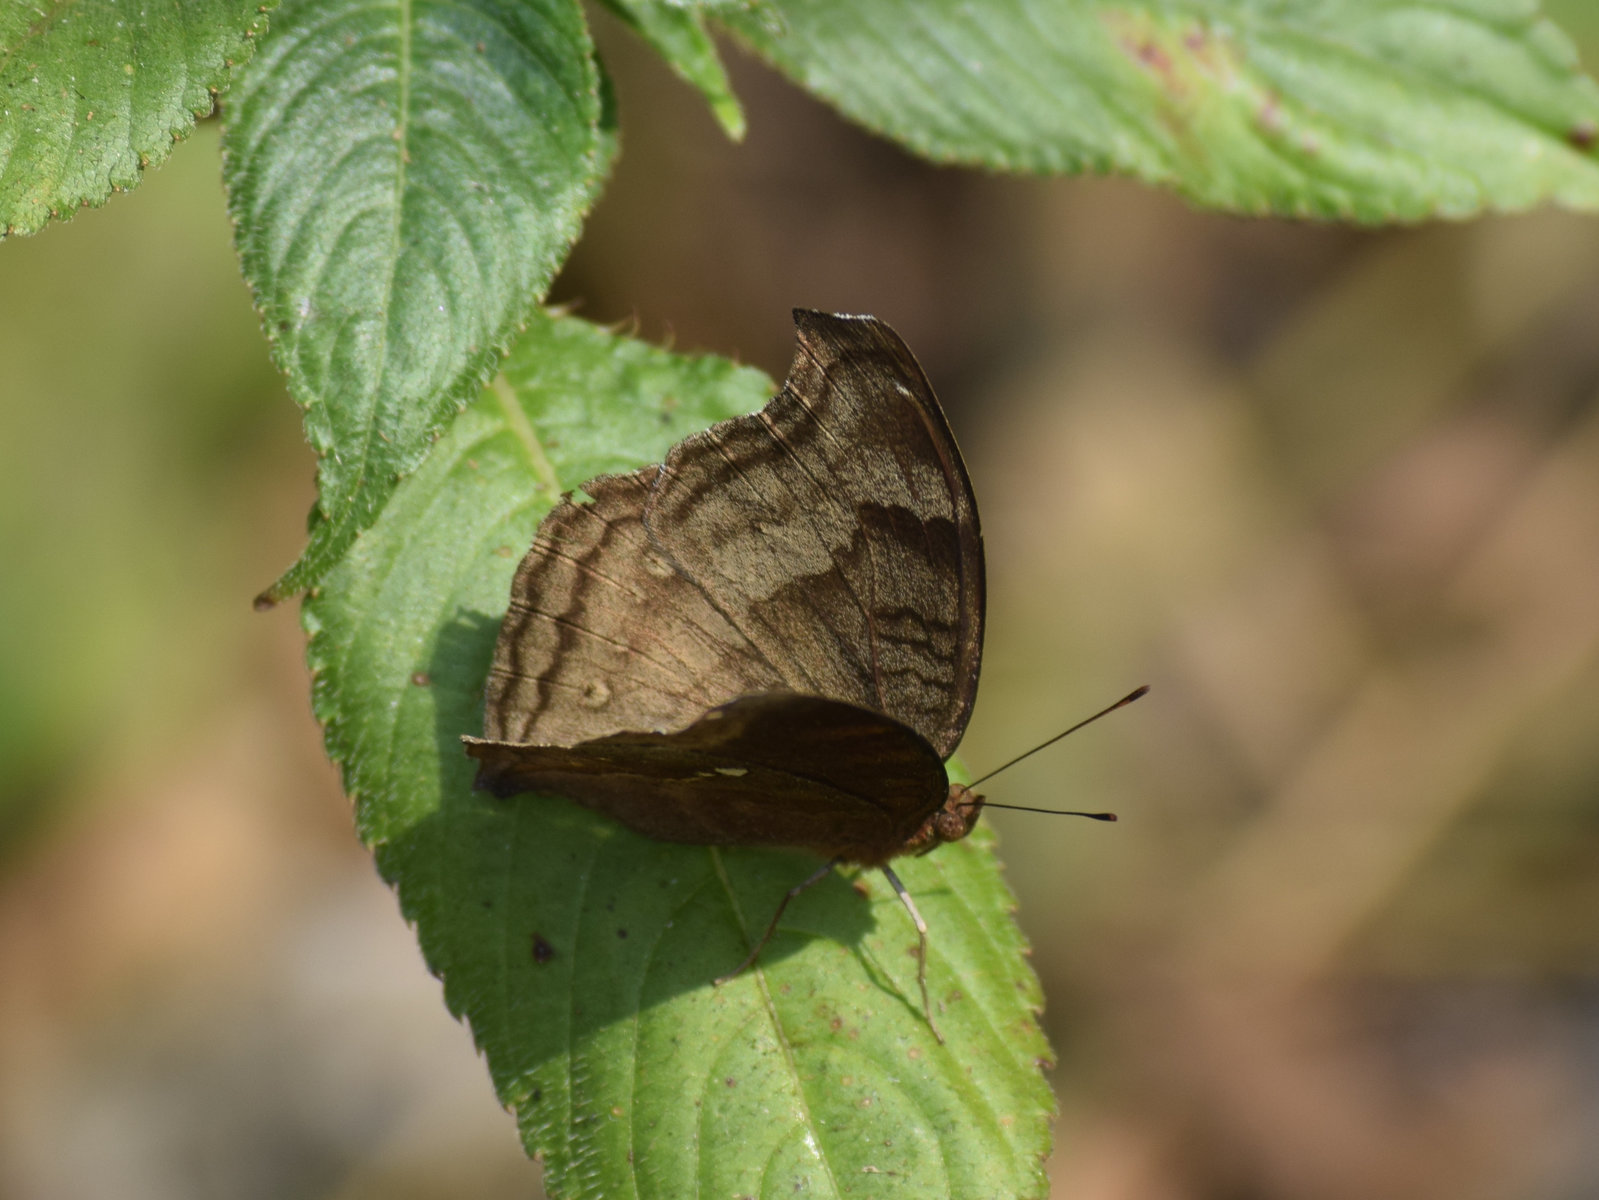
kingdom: Animalia
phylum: Arthropoda
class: Insecta
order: Lepidoptera
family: Nymphalidae
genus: Junonia
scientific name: Junonia iphita
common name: Chocolate pansy
